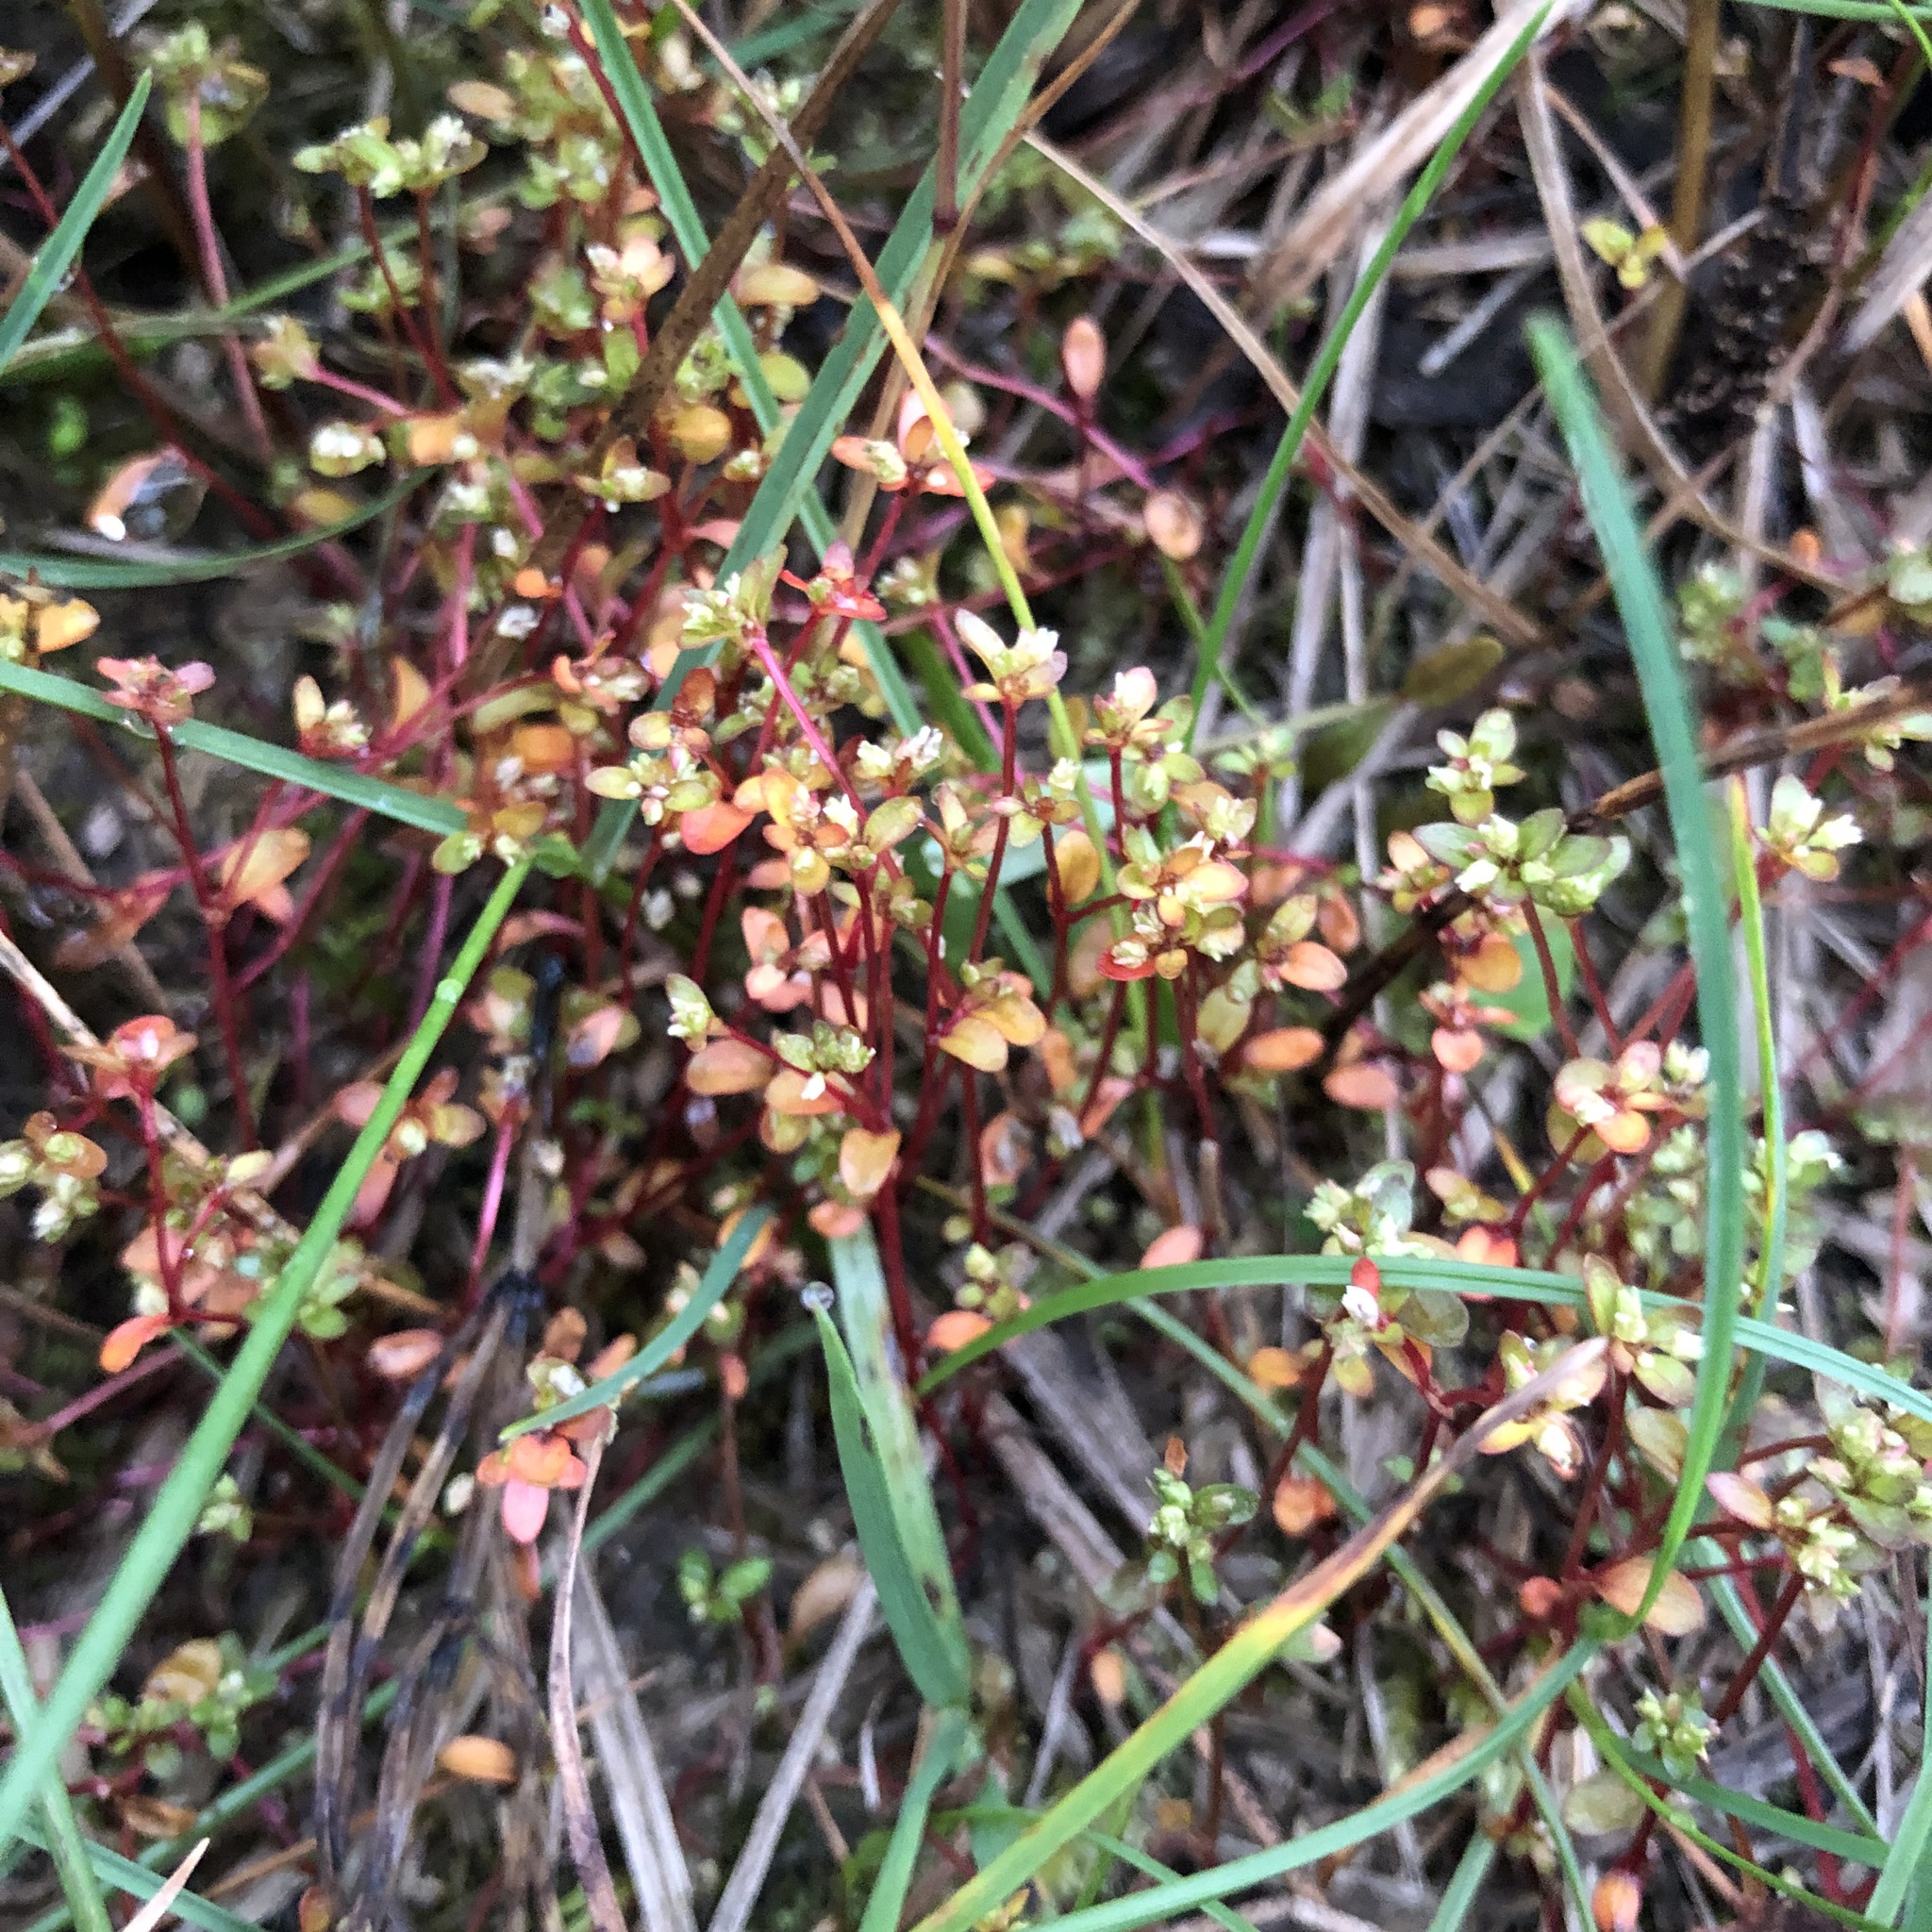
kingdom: Plantae
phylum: Tracheophyta
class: Magnoliopsida
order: Caryophyllales
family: Polygonaceae
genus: Koenigia
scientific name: Koenigia islandica
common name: Iceland-purslane
